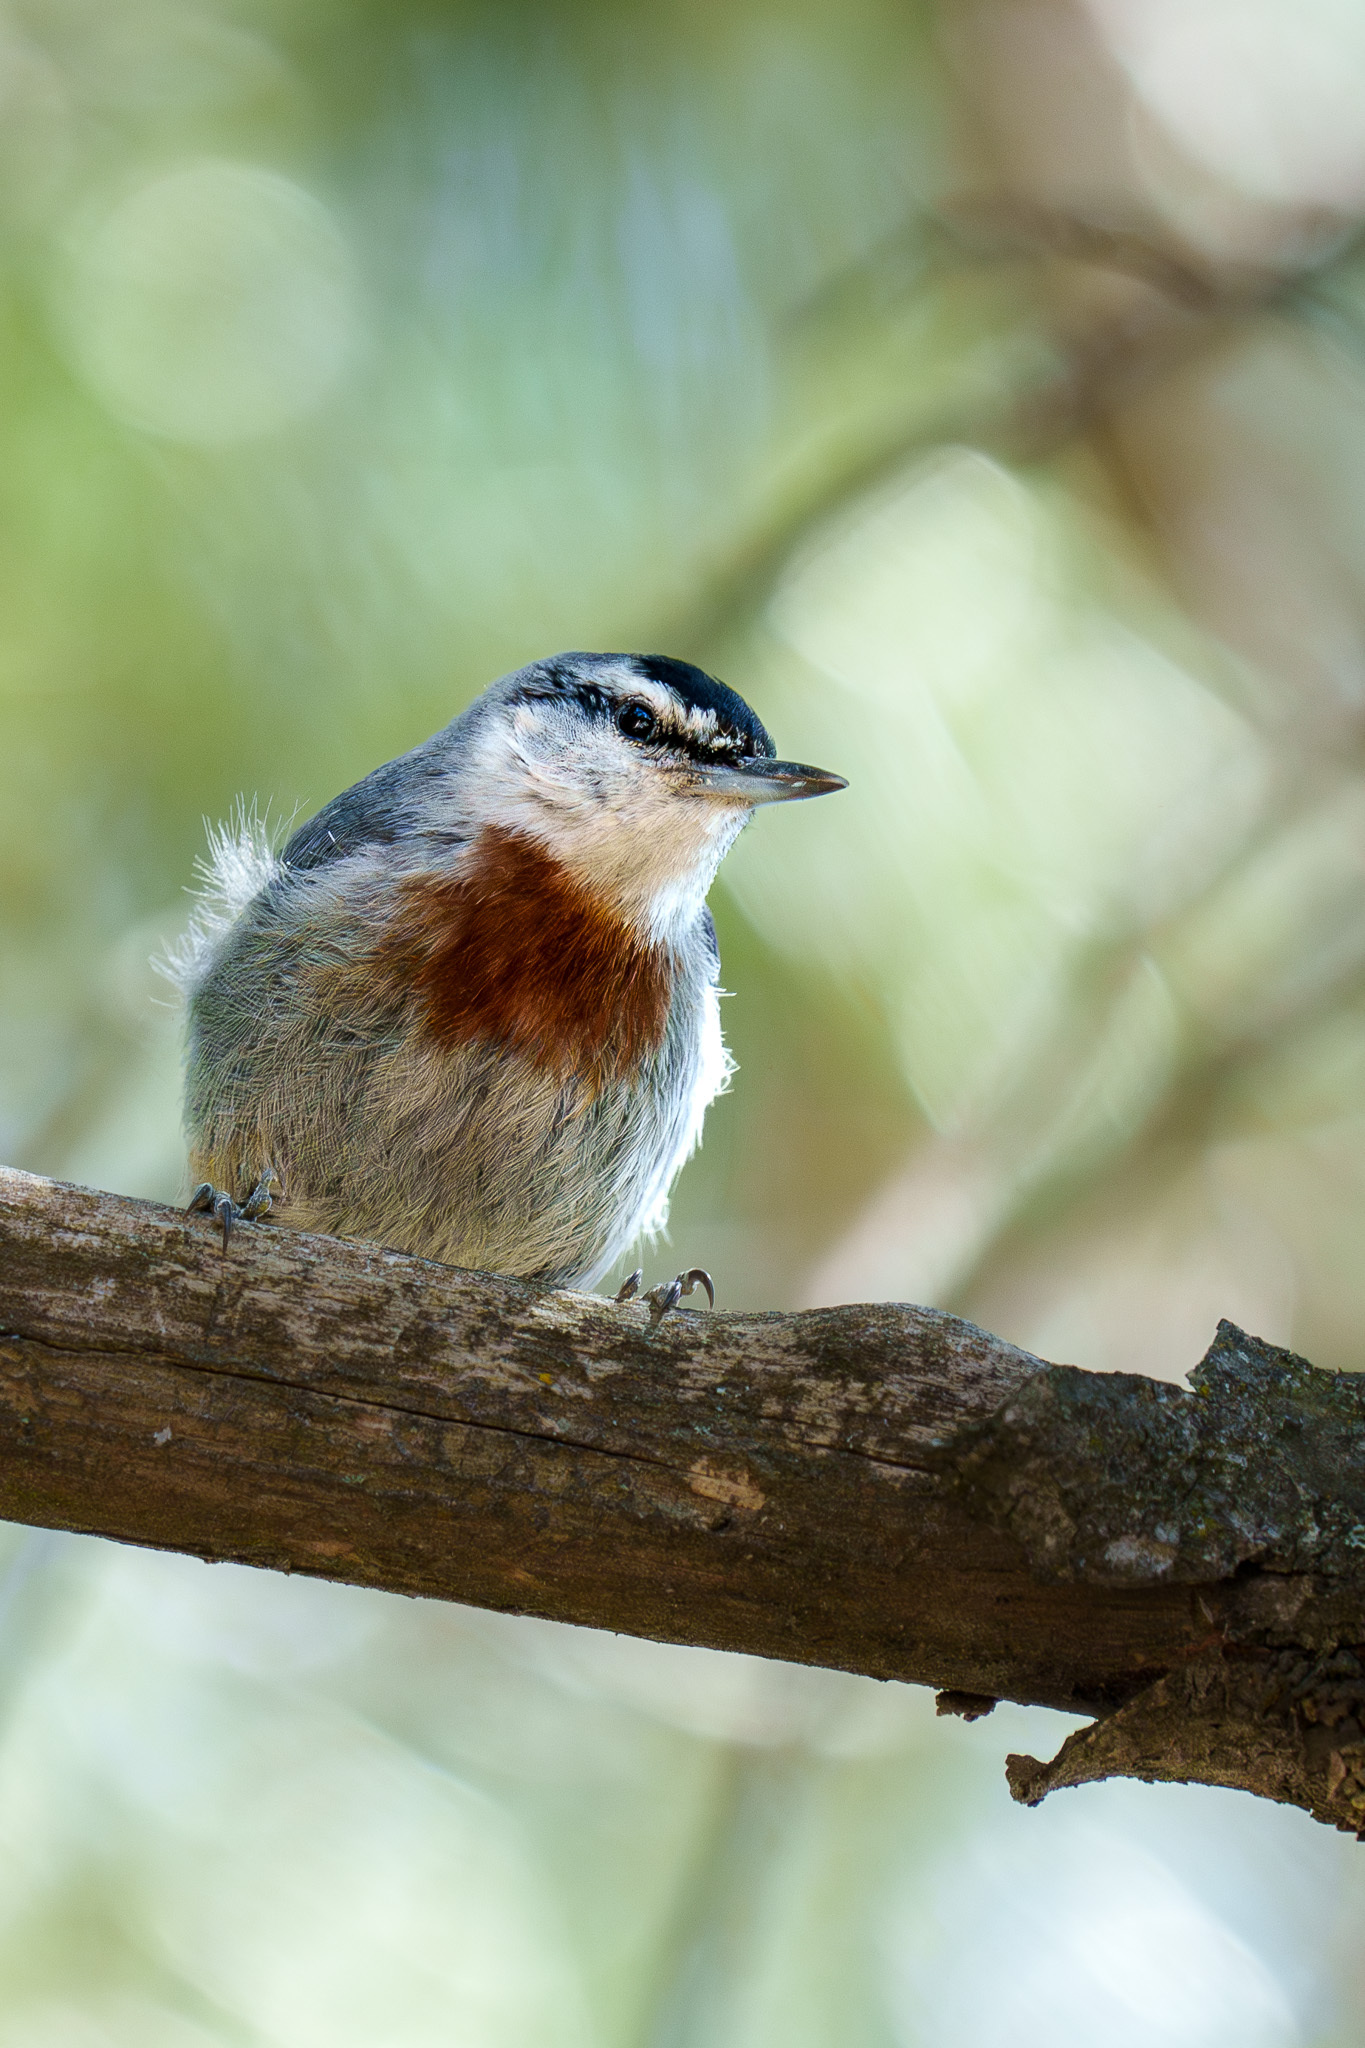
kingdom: Animalia
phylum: Chordata
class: Aves
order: Passeriformes
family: Sittidae
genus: Sitta
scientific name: Sitta krueperi
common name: Krüper's nuthatch
